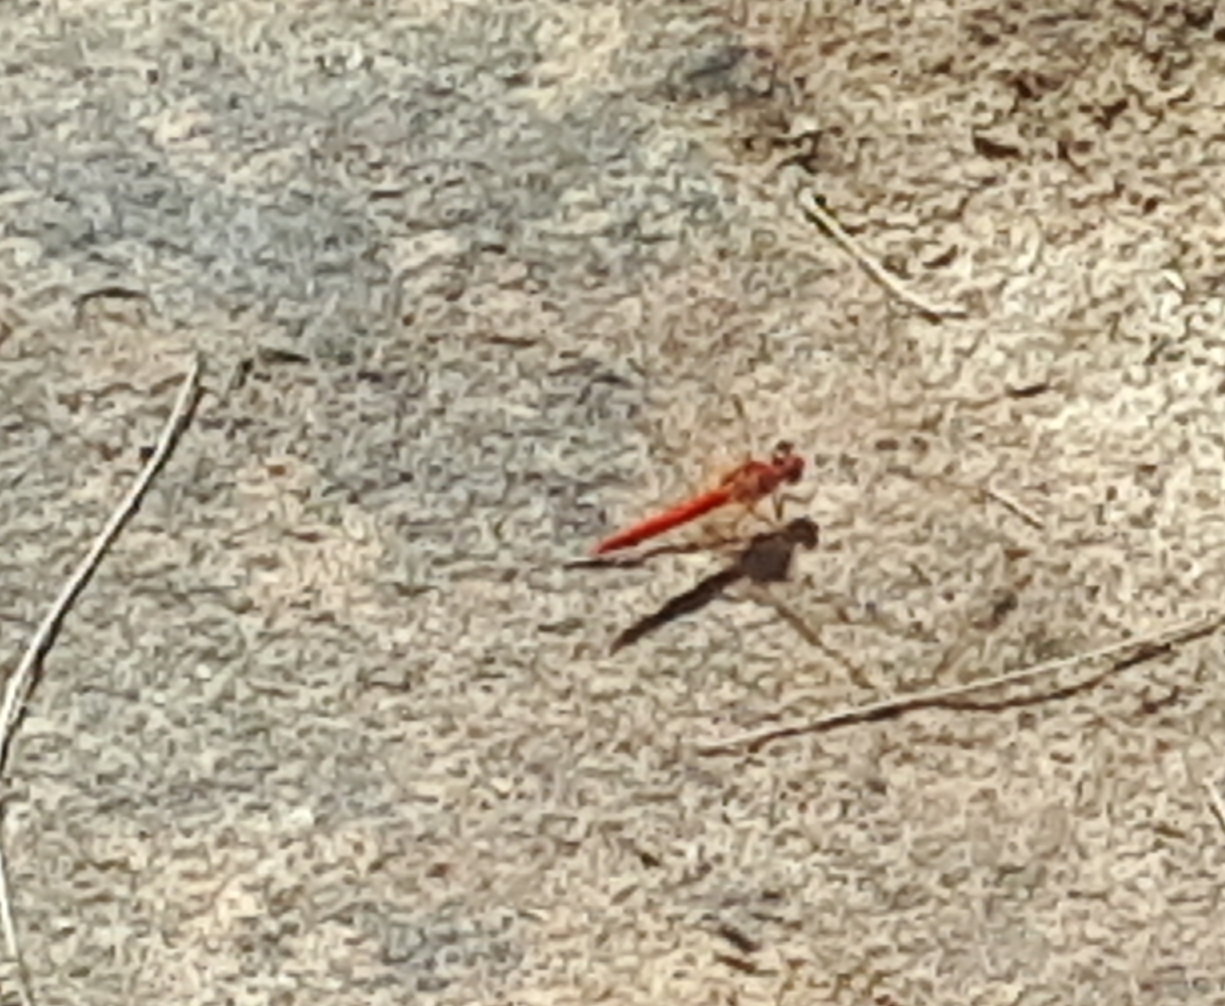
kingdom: Animalia
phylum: Arthropoda
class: Insecta
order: Odonata
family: Libellulidae
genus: Diplacodes
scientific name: Diplacodes haematodes
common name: Scarlet percher
